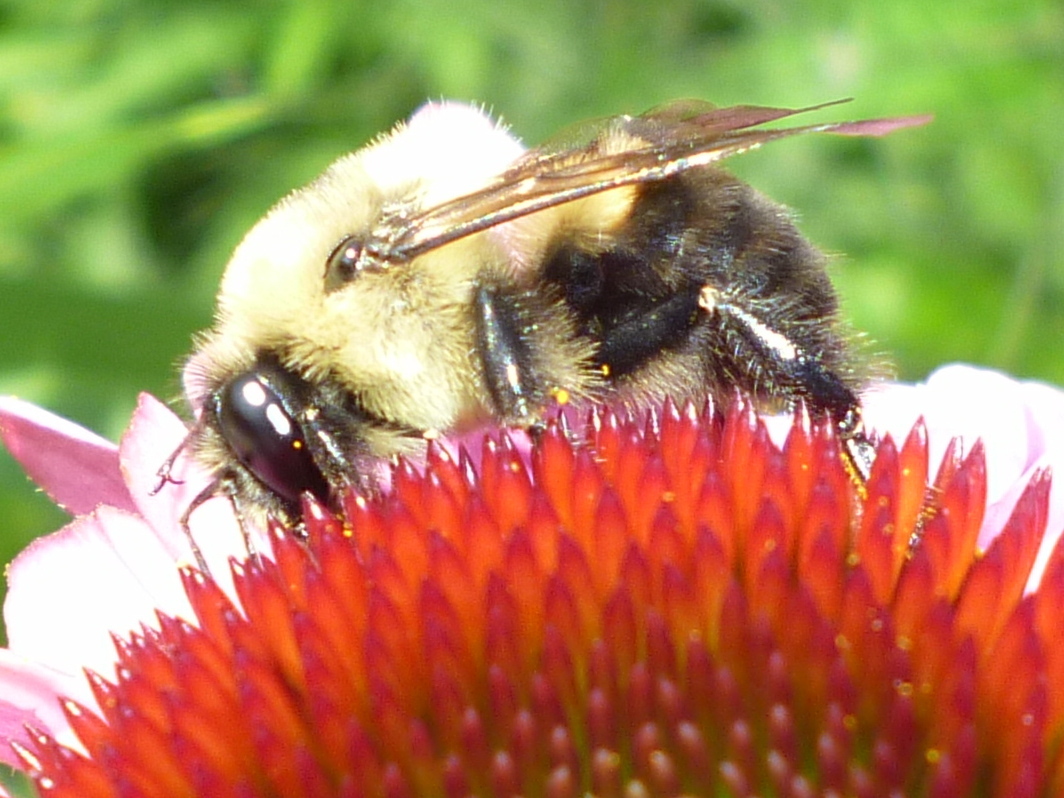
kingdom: Animalia
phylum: Arthropoda
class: Insecta
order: Hymenoptera
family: Apidae
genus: Bombus
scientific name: Bombus griseocollis
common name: Brown-belted bumble bee
